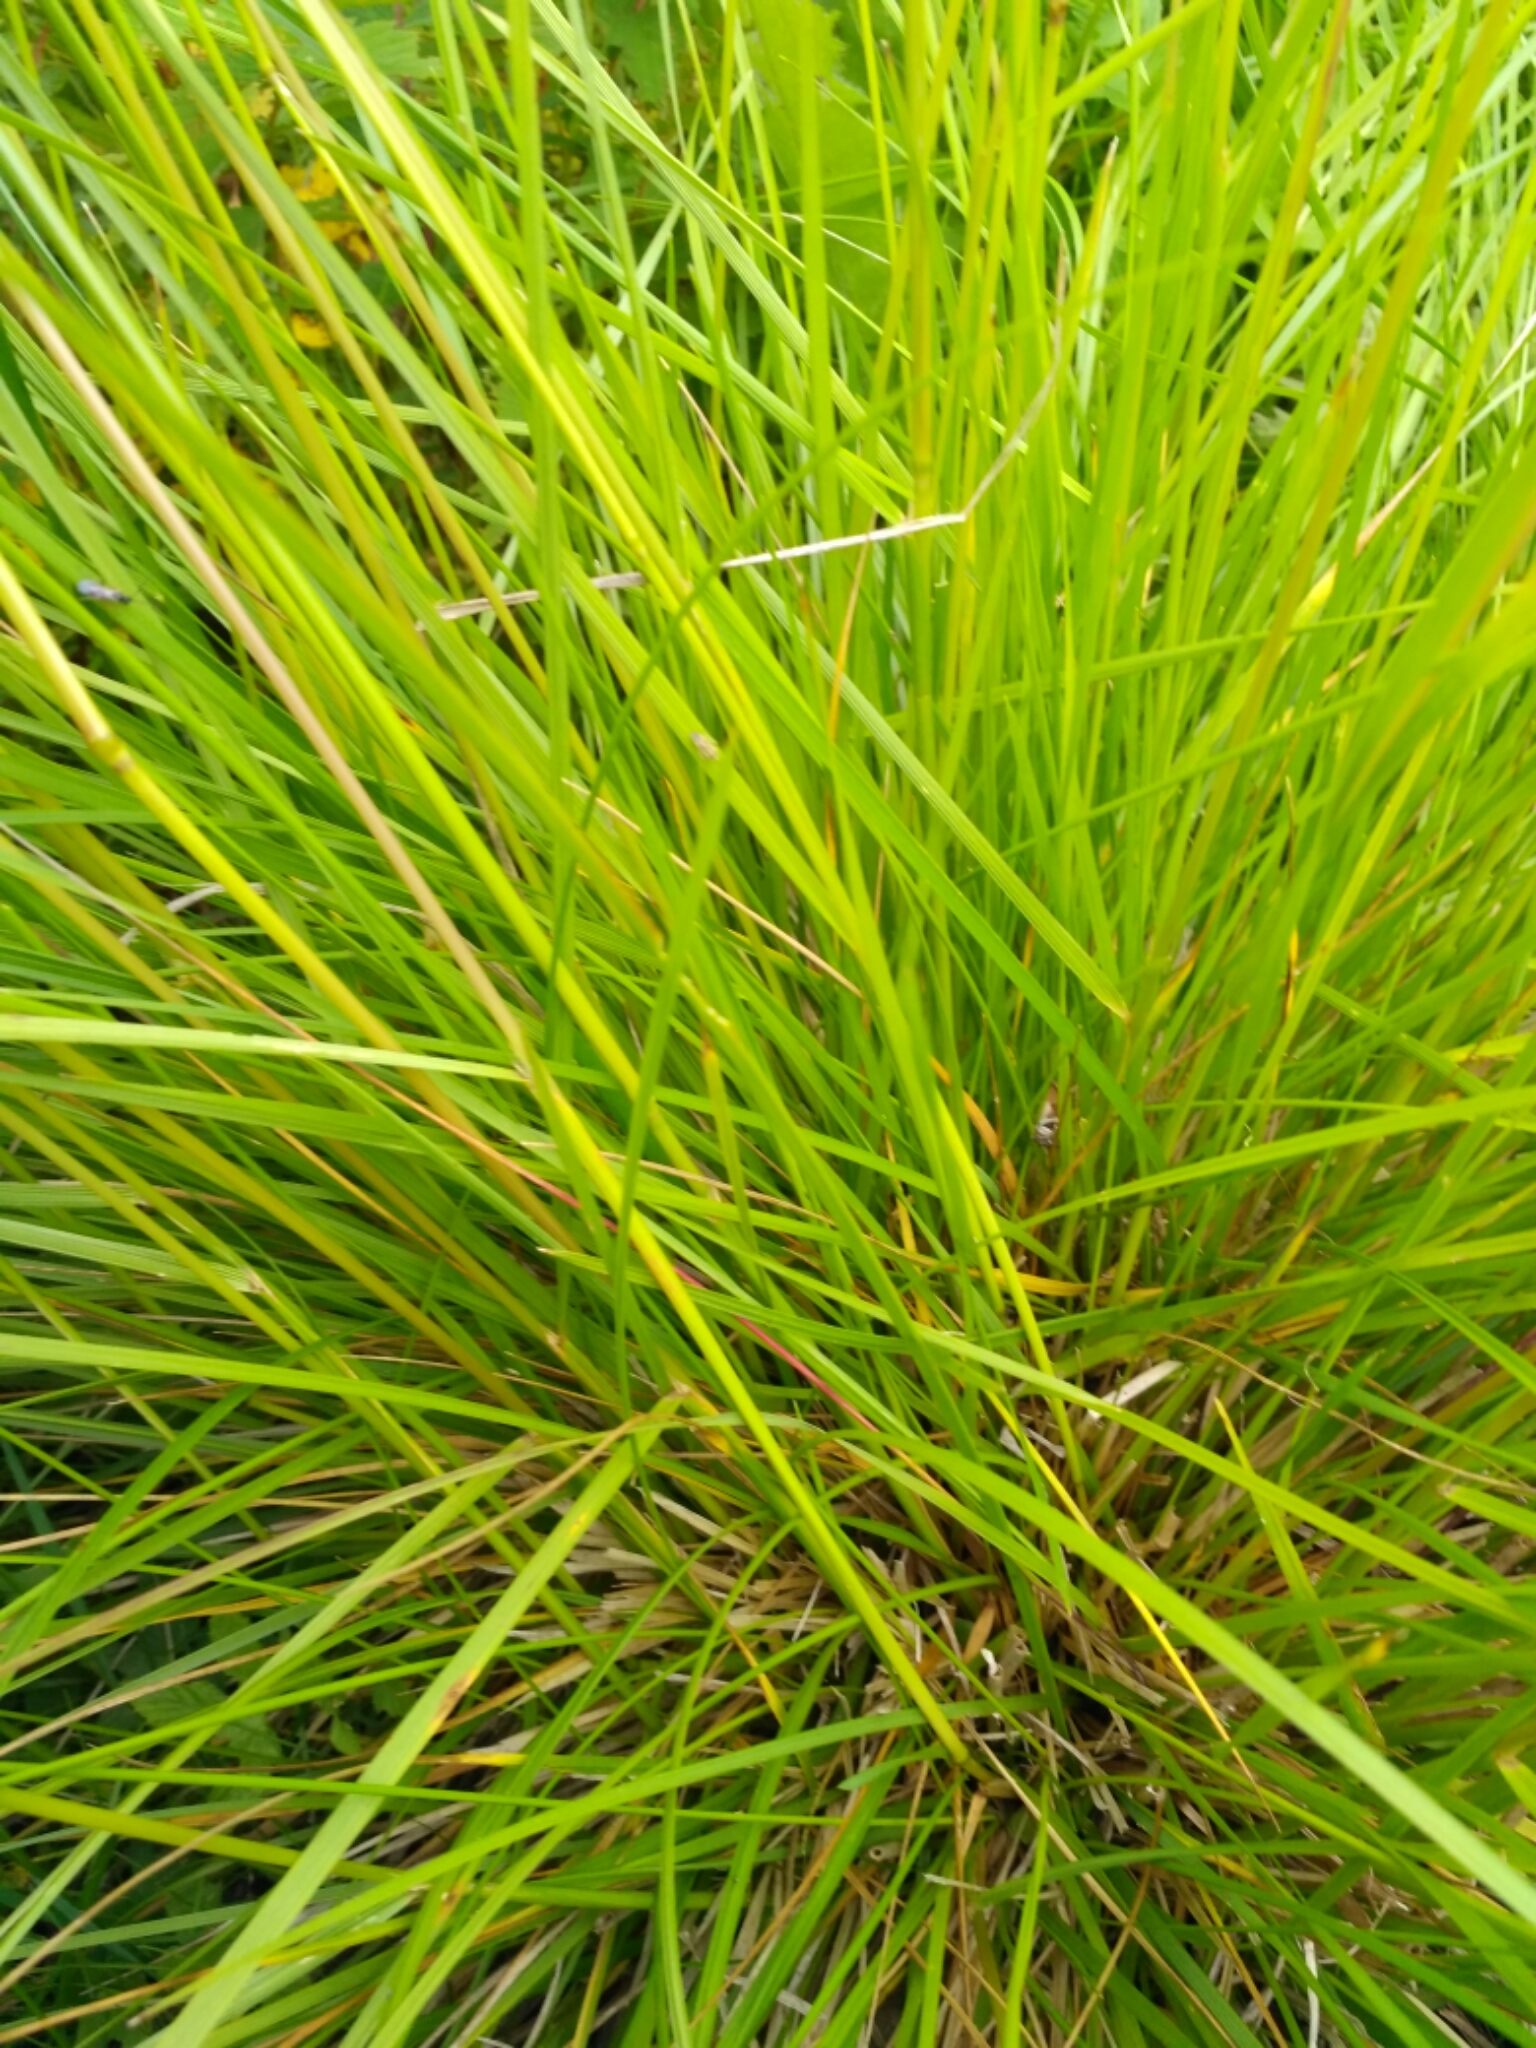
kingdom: Plantae
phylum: Tracheophyta
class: Liliopsida
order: Poales
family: Poaceae
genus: Deschampsia
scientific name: Deschampsia cespitosa
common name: Tufted hair-grass
